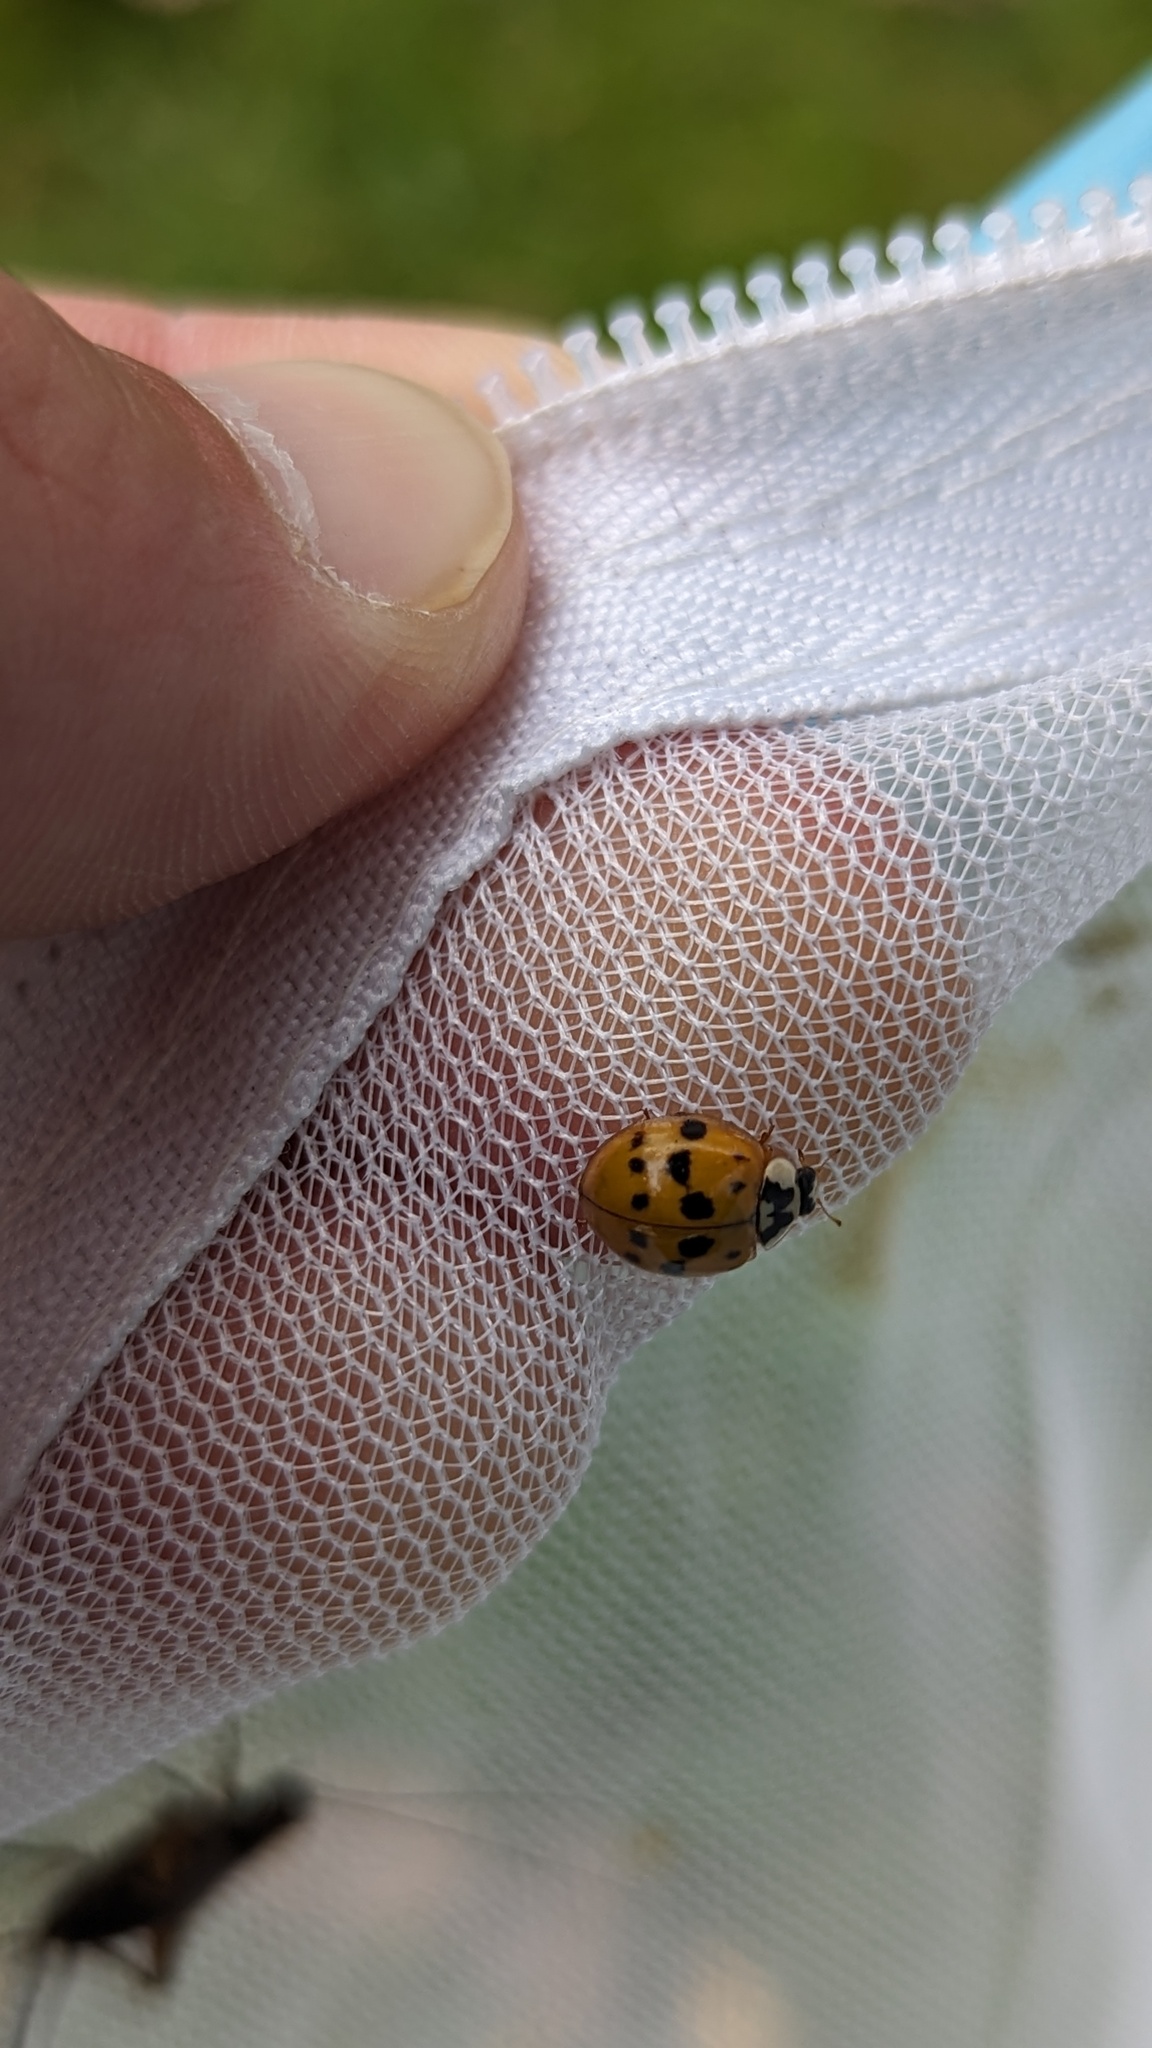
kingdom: Animalia
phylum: Arthropoda
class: Insecta
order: Coleoptera
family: Coccinellidae
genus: Harmonia
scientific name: Harmonia axyridis
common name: Harlequin ladybird
